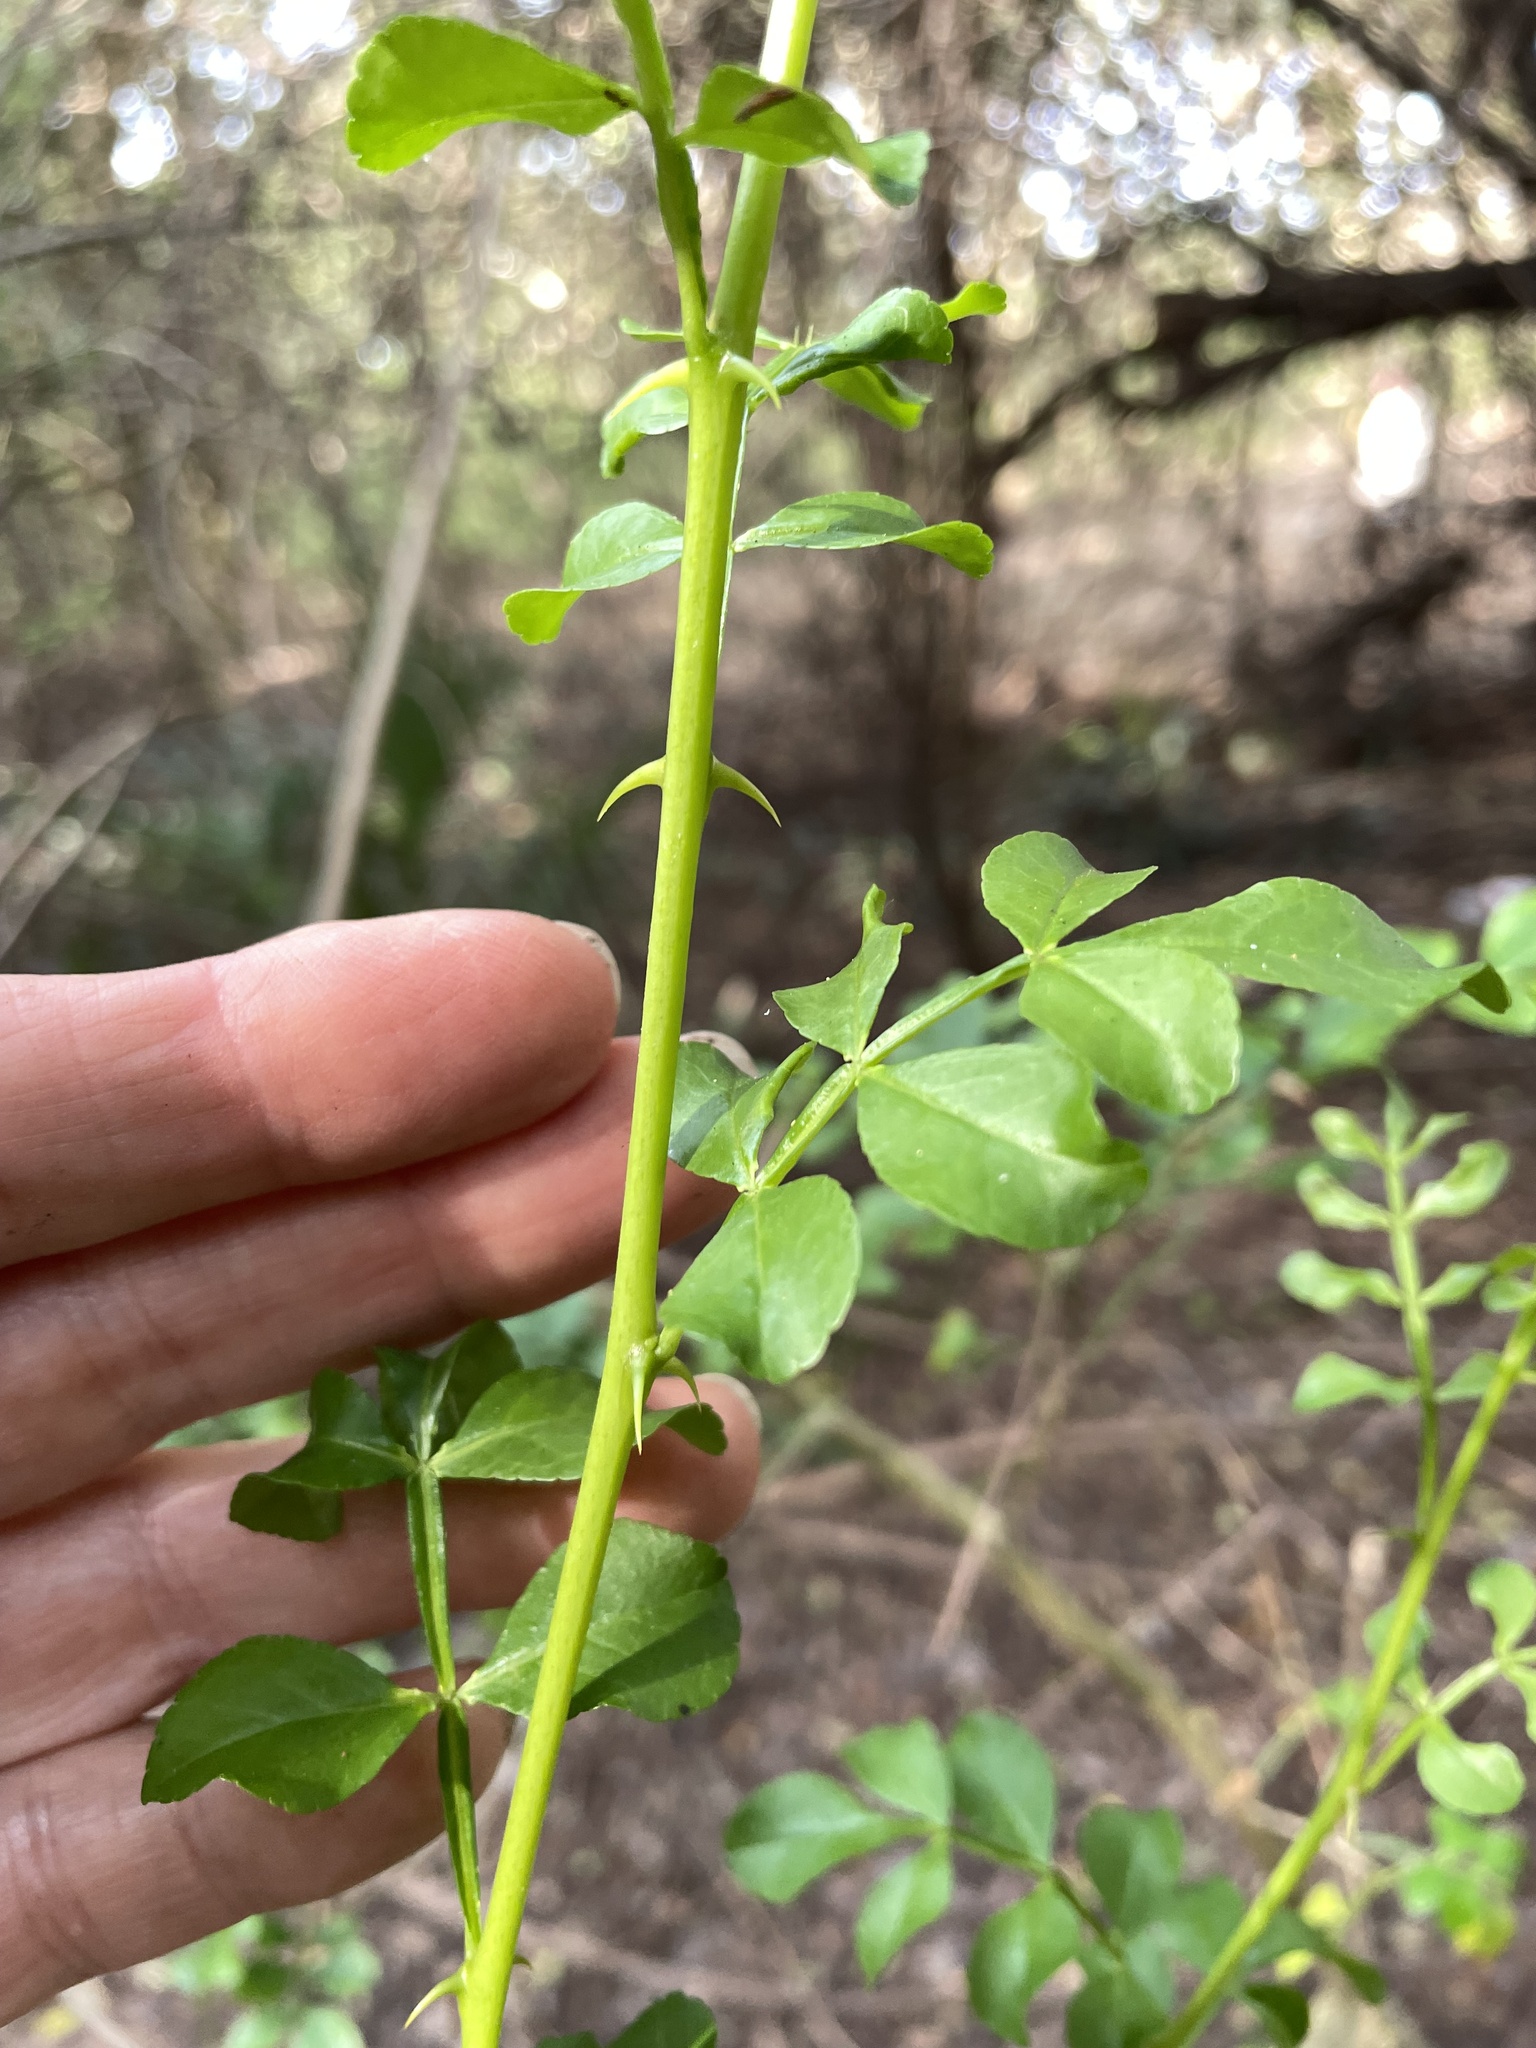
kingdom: Plantae
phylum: Tracheophyta
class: Magnoliopsida
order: Sapindales
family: Rutaceae
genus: Zanthoxylum
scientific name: Zanthoxylum fagara
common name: Lime prickly-ash
